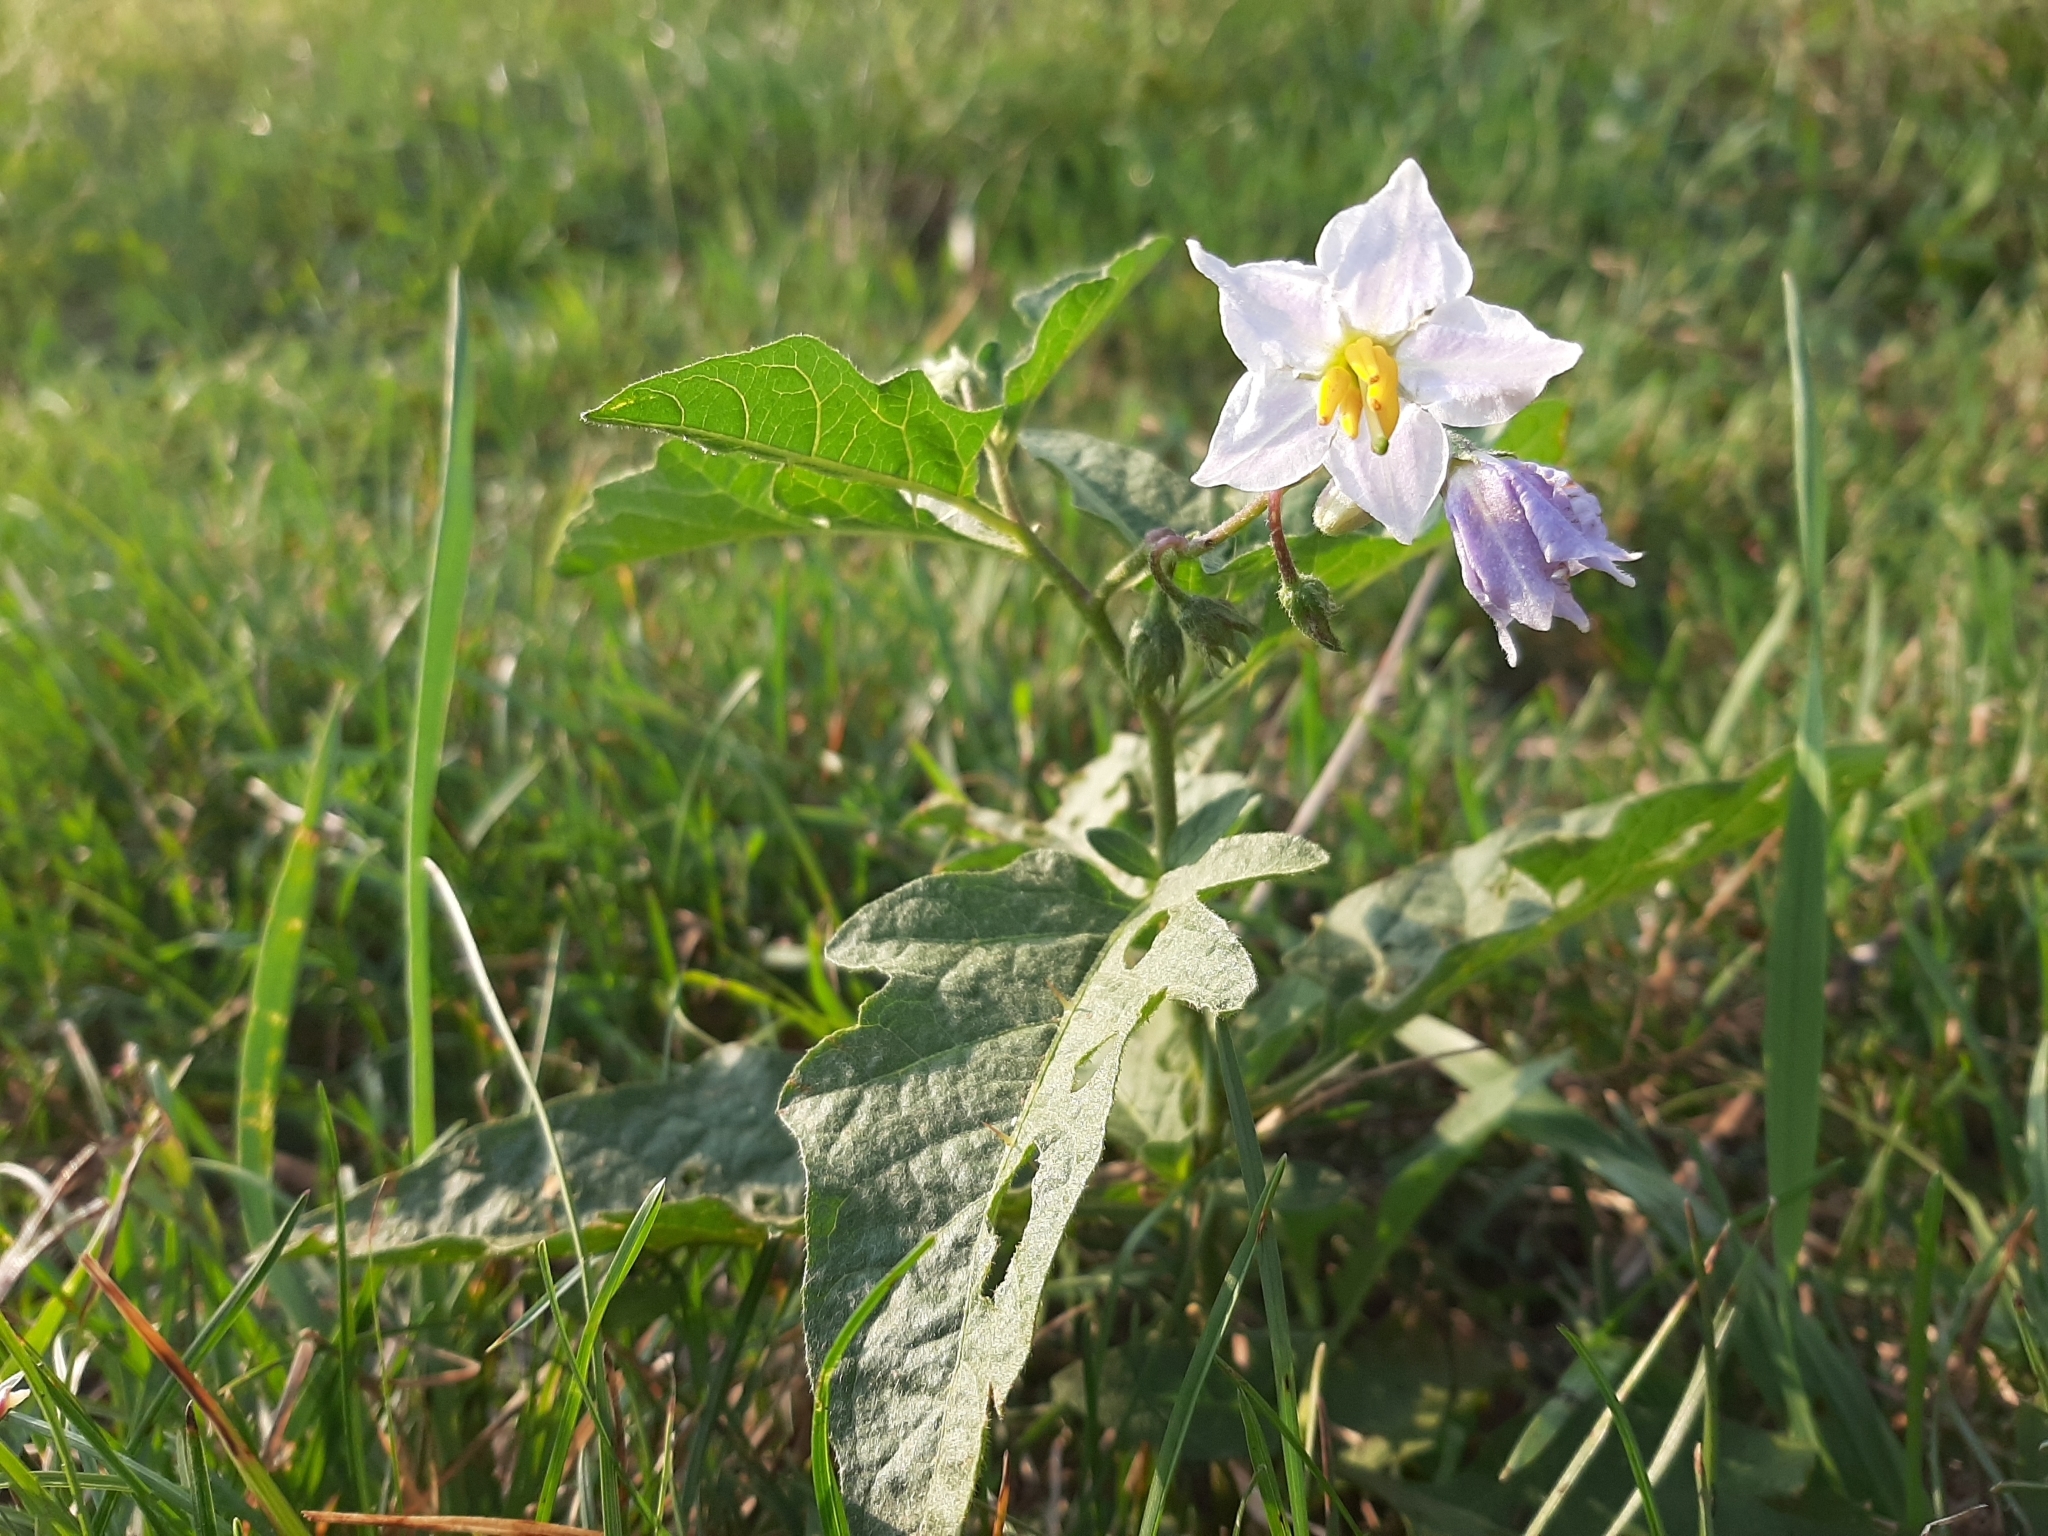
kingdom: Plantae
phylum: Tracheophyta
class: Magnoliopsida
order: Solanales
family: Solanaceae
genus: Solanum
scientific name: Solanum carolinense
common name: Horse-nettle
